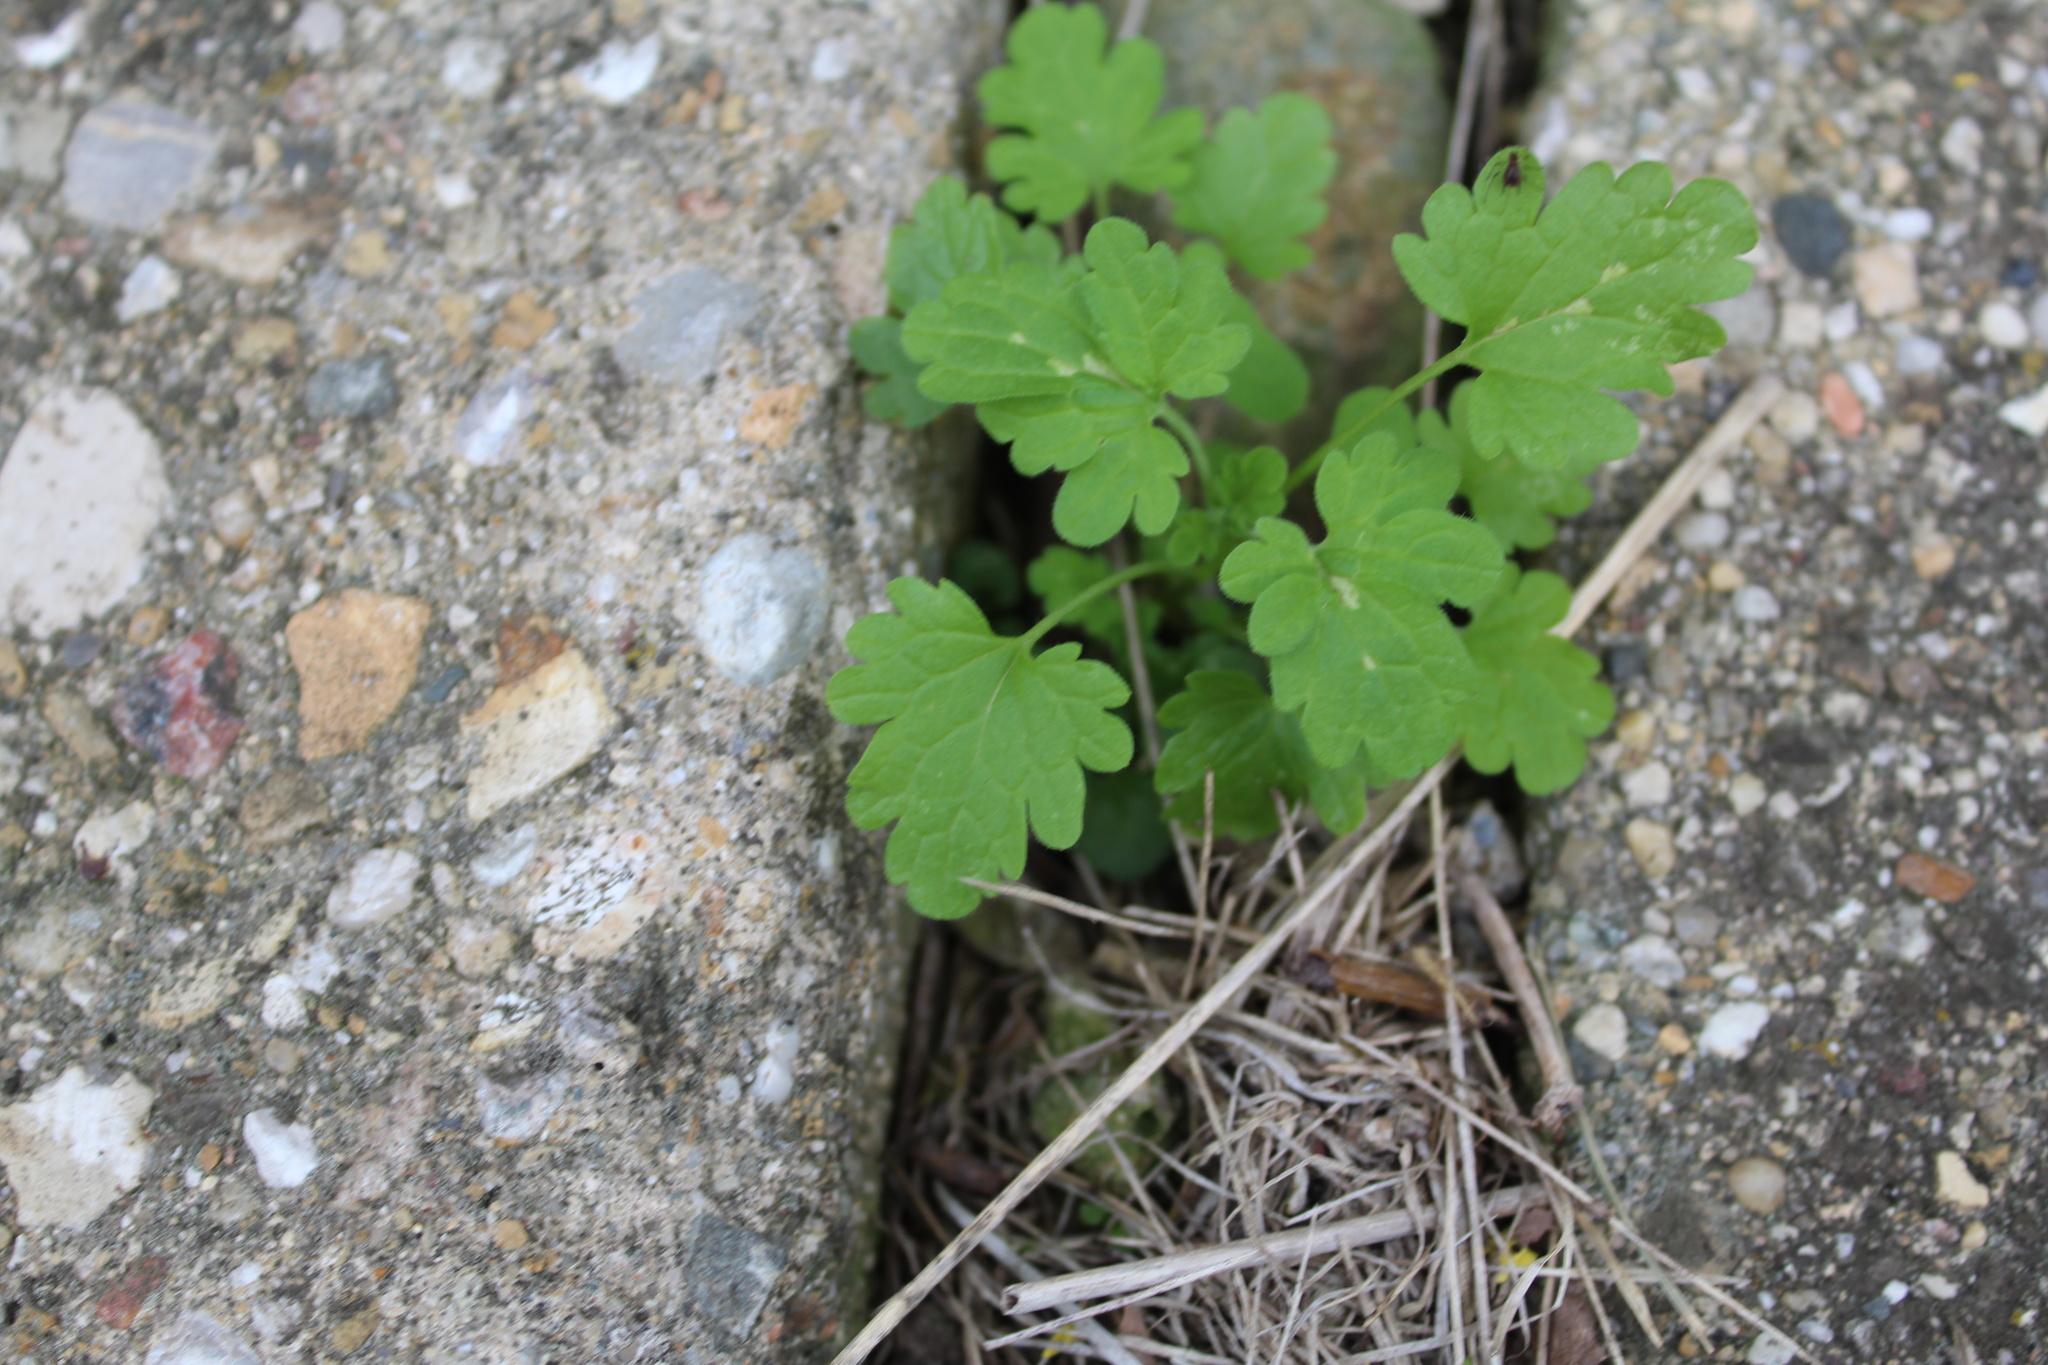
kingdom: Plantae
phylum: Tracheophyta
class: Magnoliopsida
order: Lamiales
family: Lamiaceae
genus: Lamium
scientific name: Lamium amplexicaule
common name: Henbit dead-nettle
